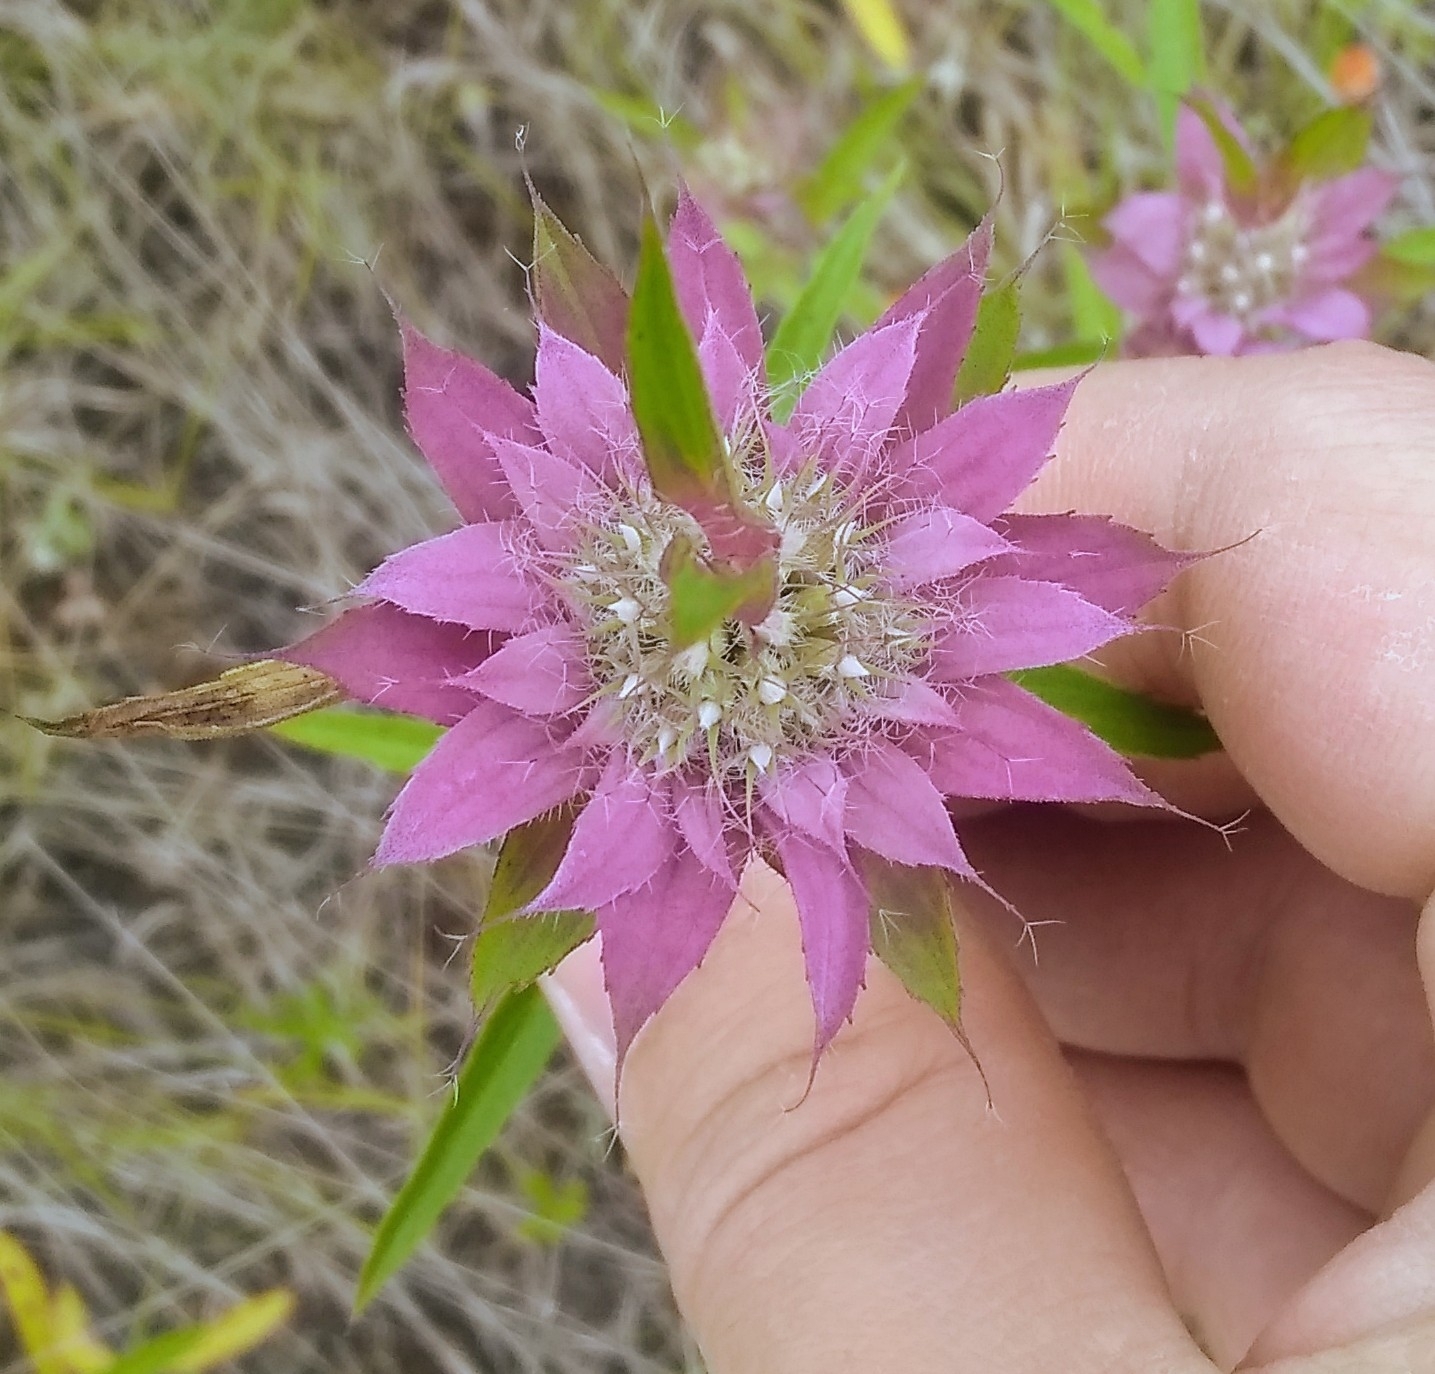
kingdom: Plantae
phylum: Tracheophyta
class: Magnoliopsida
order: Lamiales
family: Lamiaceae
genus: Monarda
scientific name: Monarda citriodora
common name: Lemon beebalm
